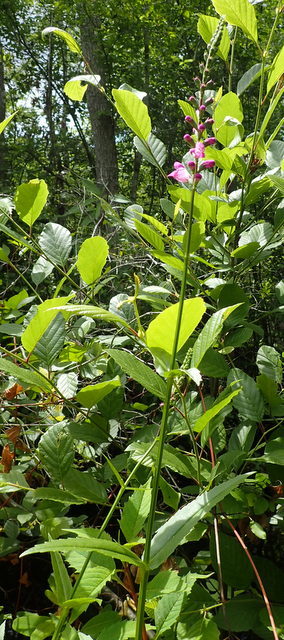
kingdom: Plantae
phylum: Tracheophyta
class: Magnoliopsida
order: Lamiales
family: Lamiaceae
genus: Physostegia
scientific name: Physostegia virginiana
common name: Obedient-plant
